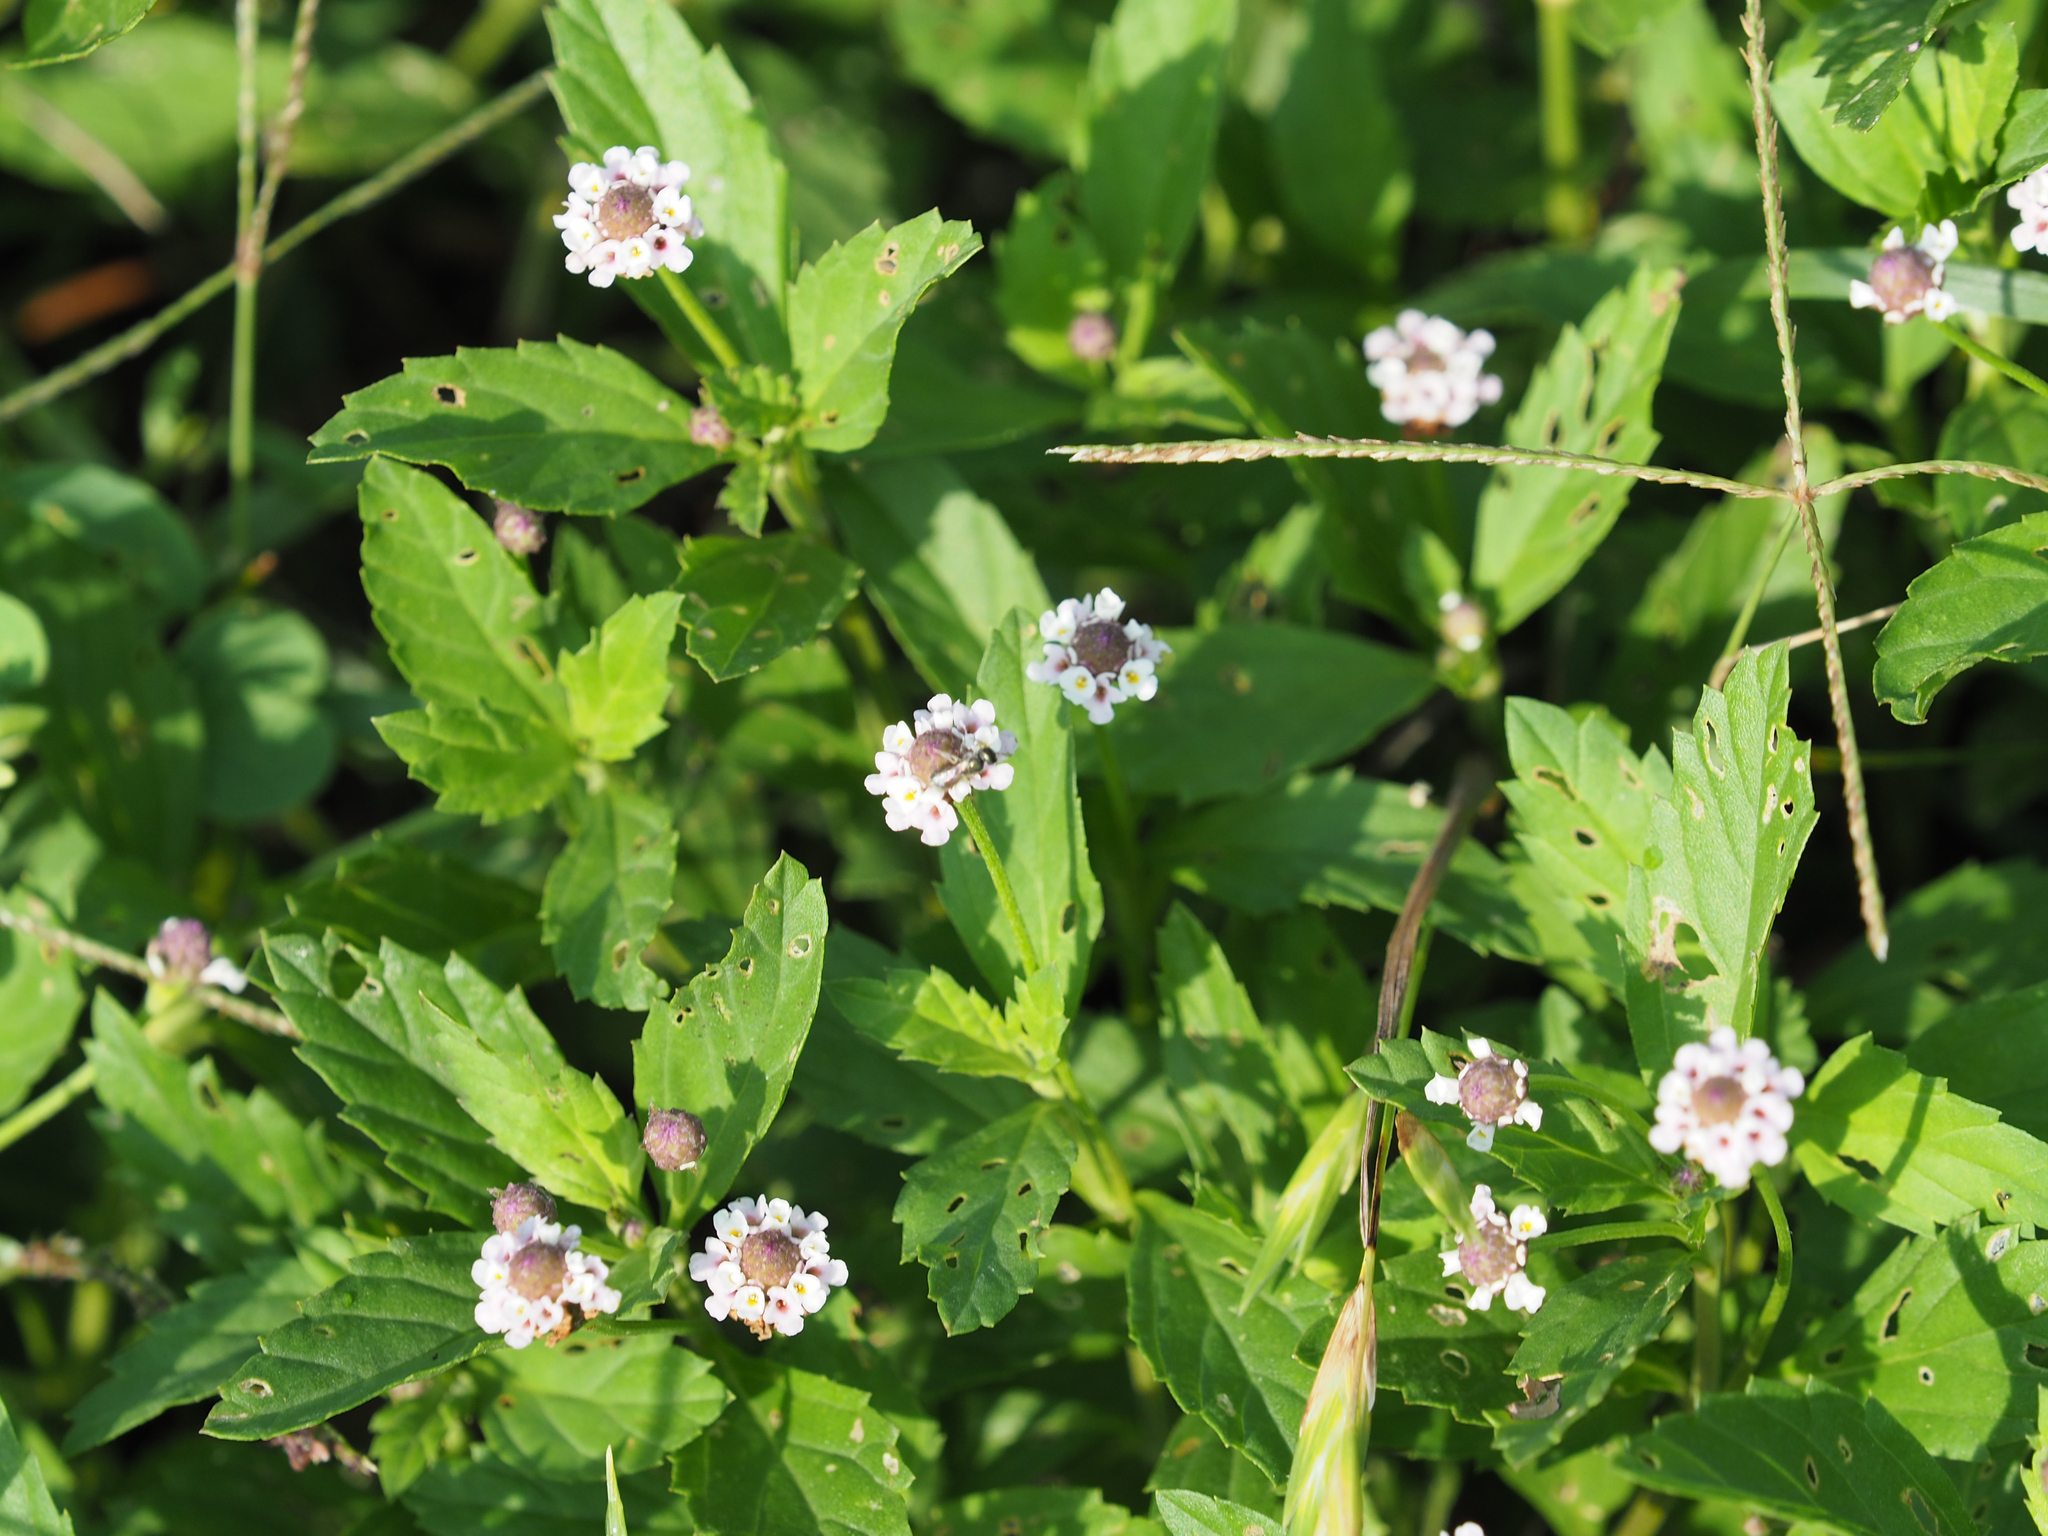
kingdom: Plantae
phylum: Tracheophyta
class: Magnoliopsida
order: Lamiales
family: Verbenaceae
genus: Phyla
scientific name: Phyla lanceolata
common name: Northern fogfruit
